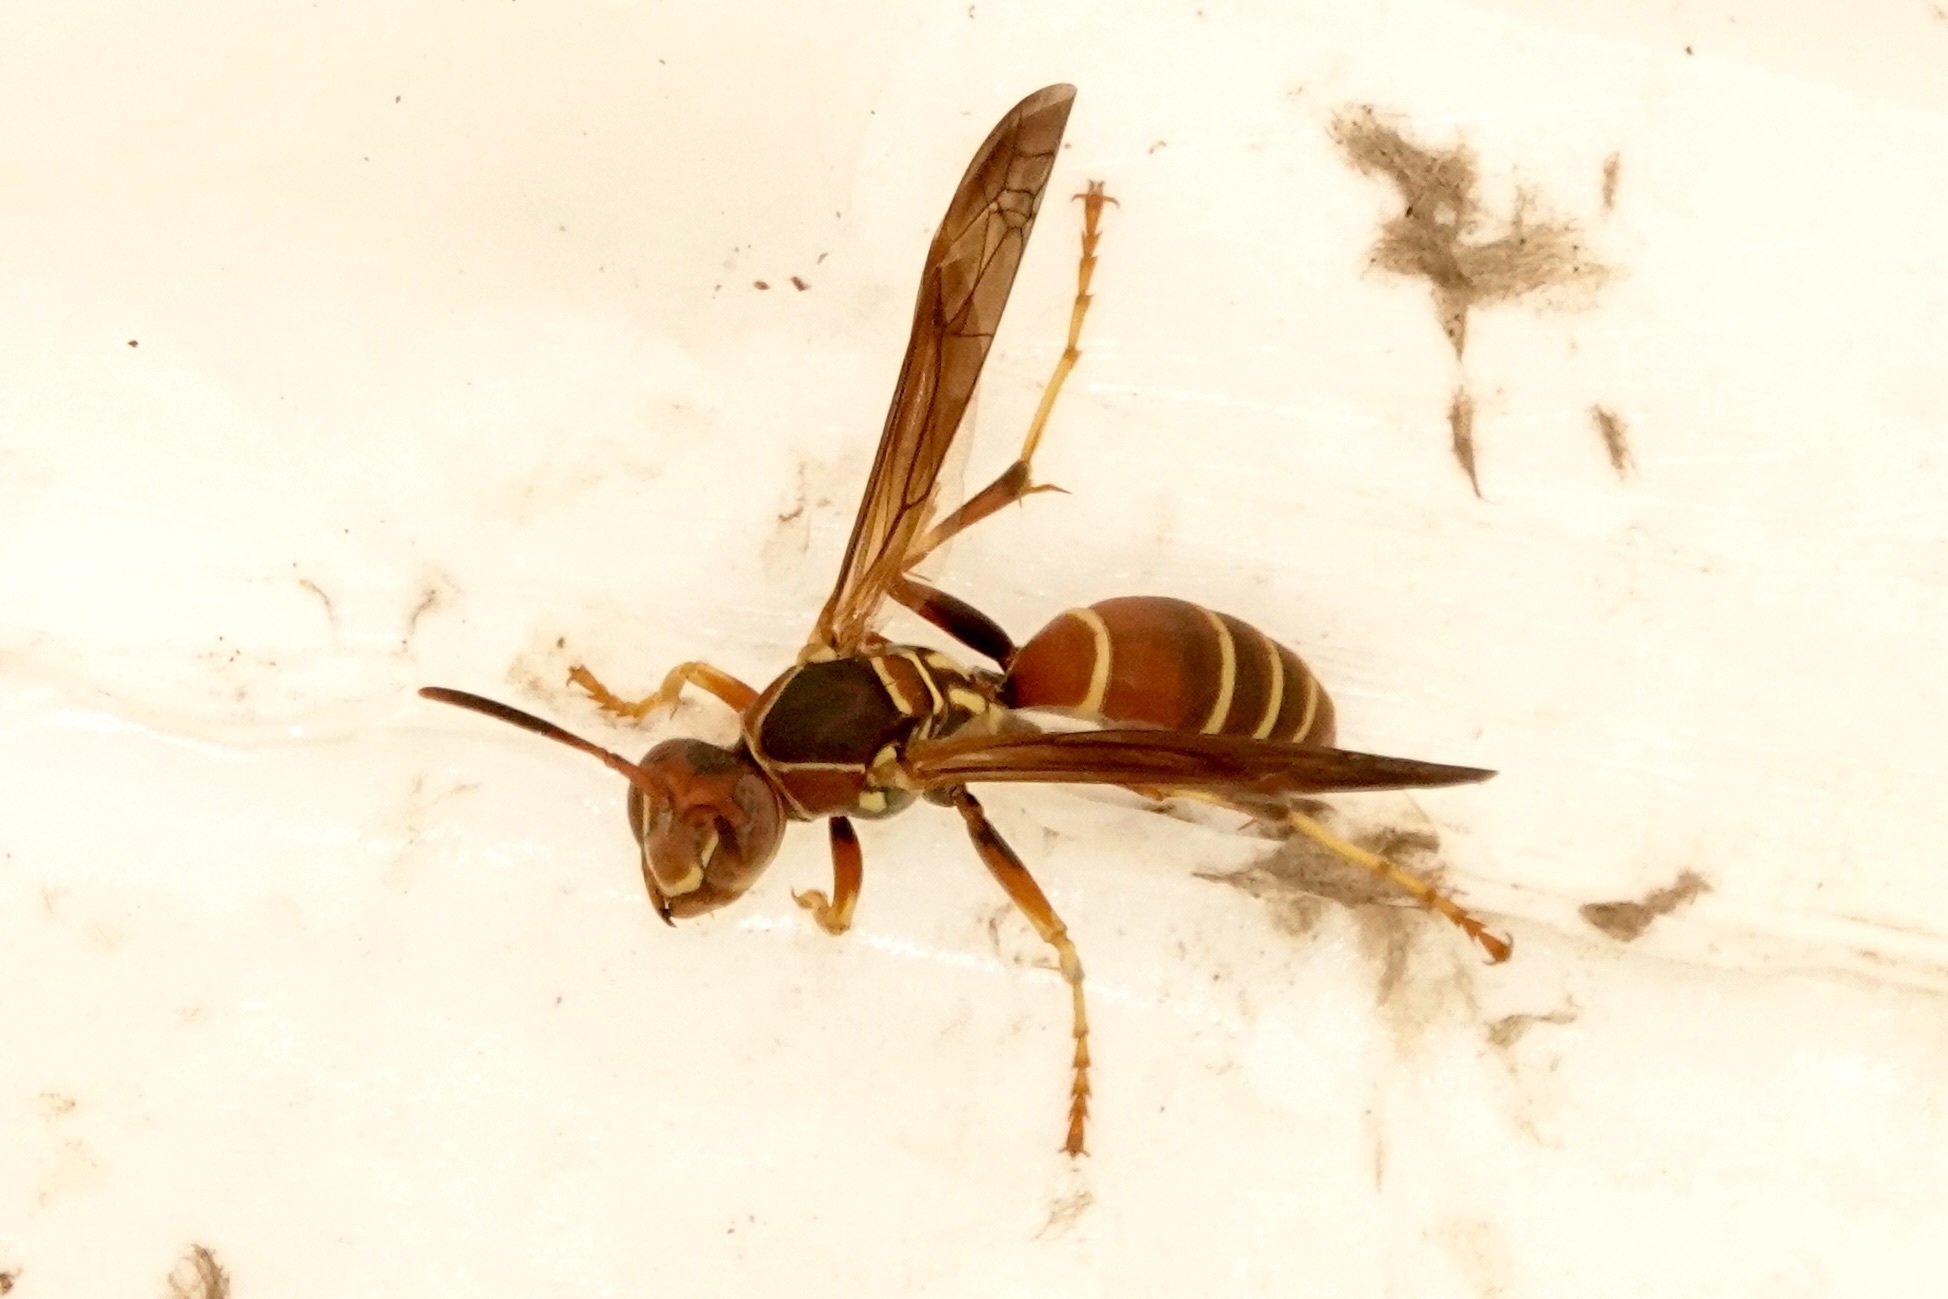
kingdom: Animalia
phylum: Arthropoda
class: Insecta
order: Hymenoptera
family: Eumenidae
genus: Polistes
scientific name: Polistes dorsalis
